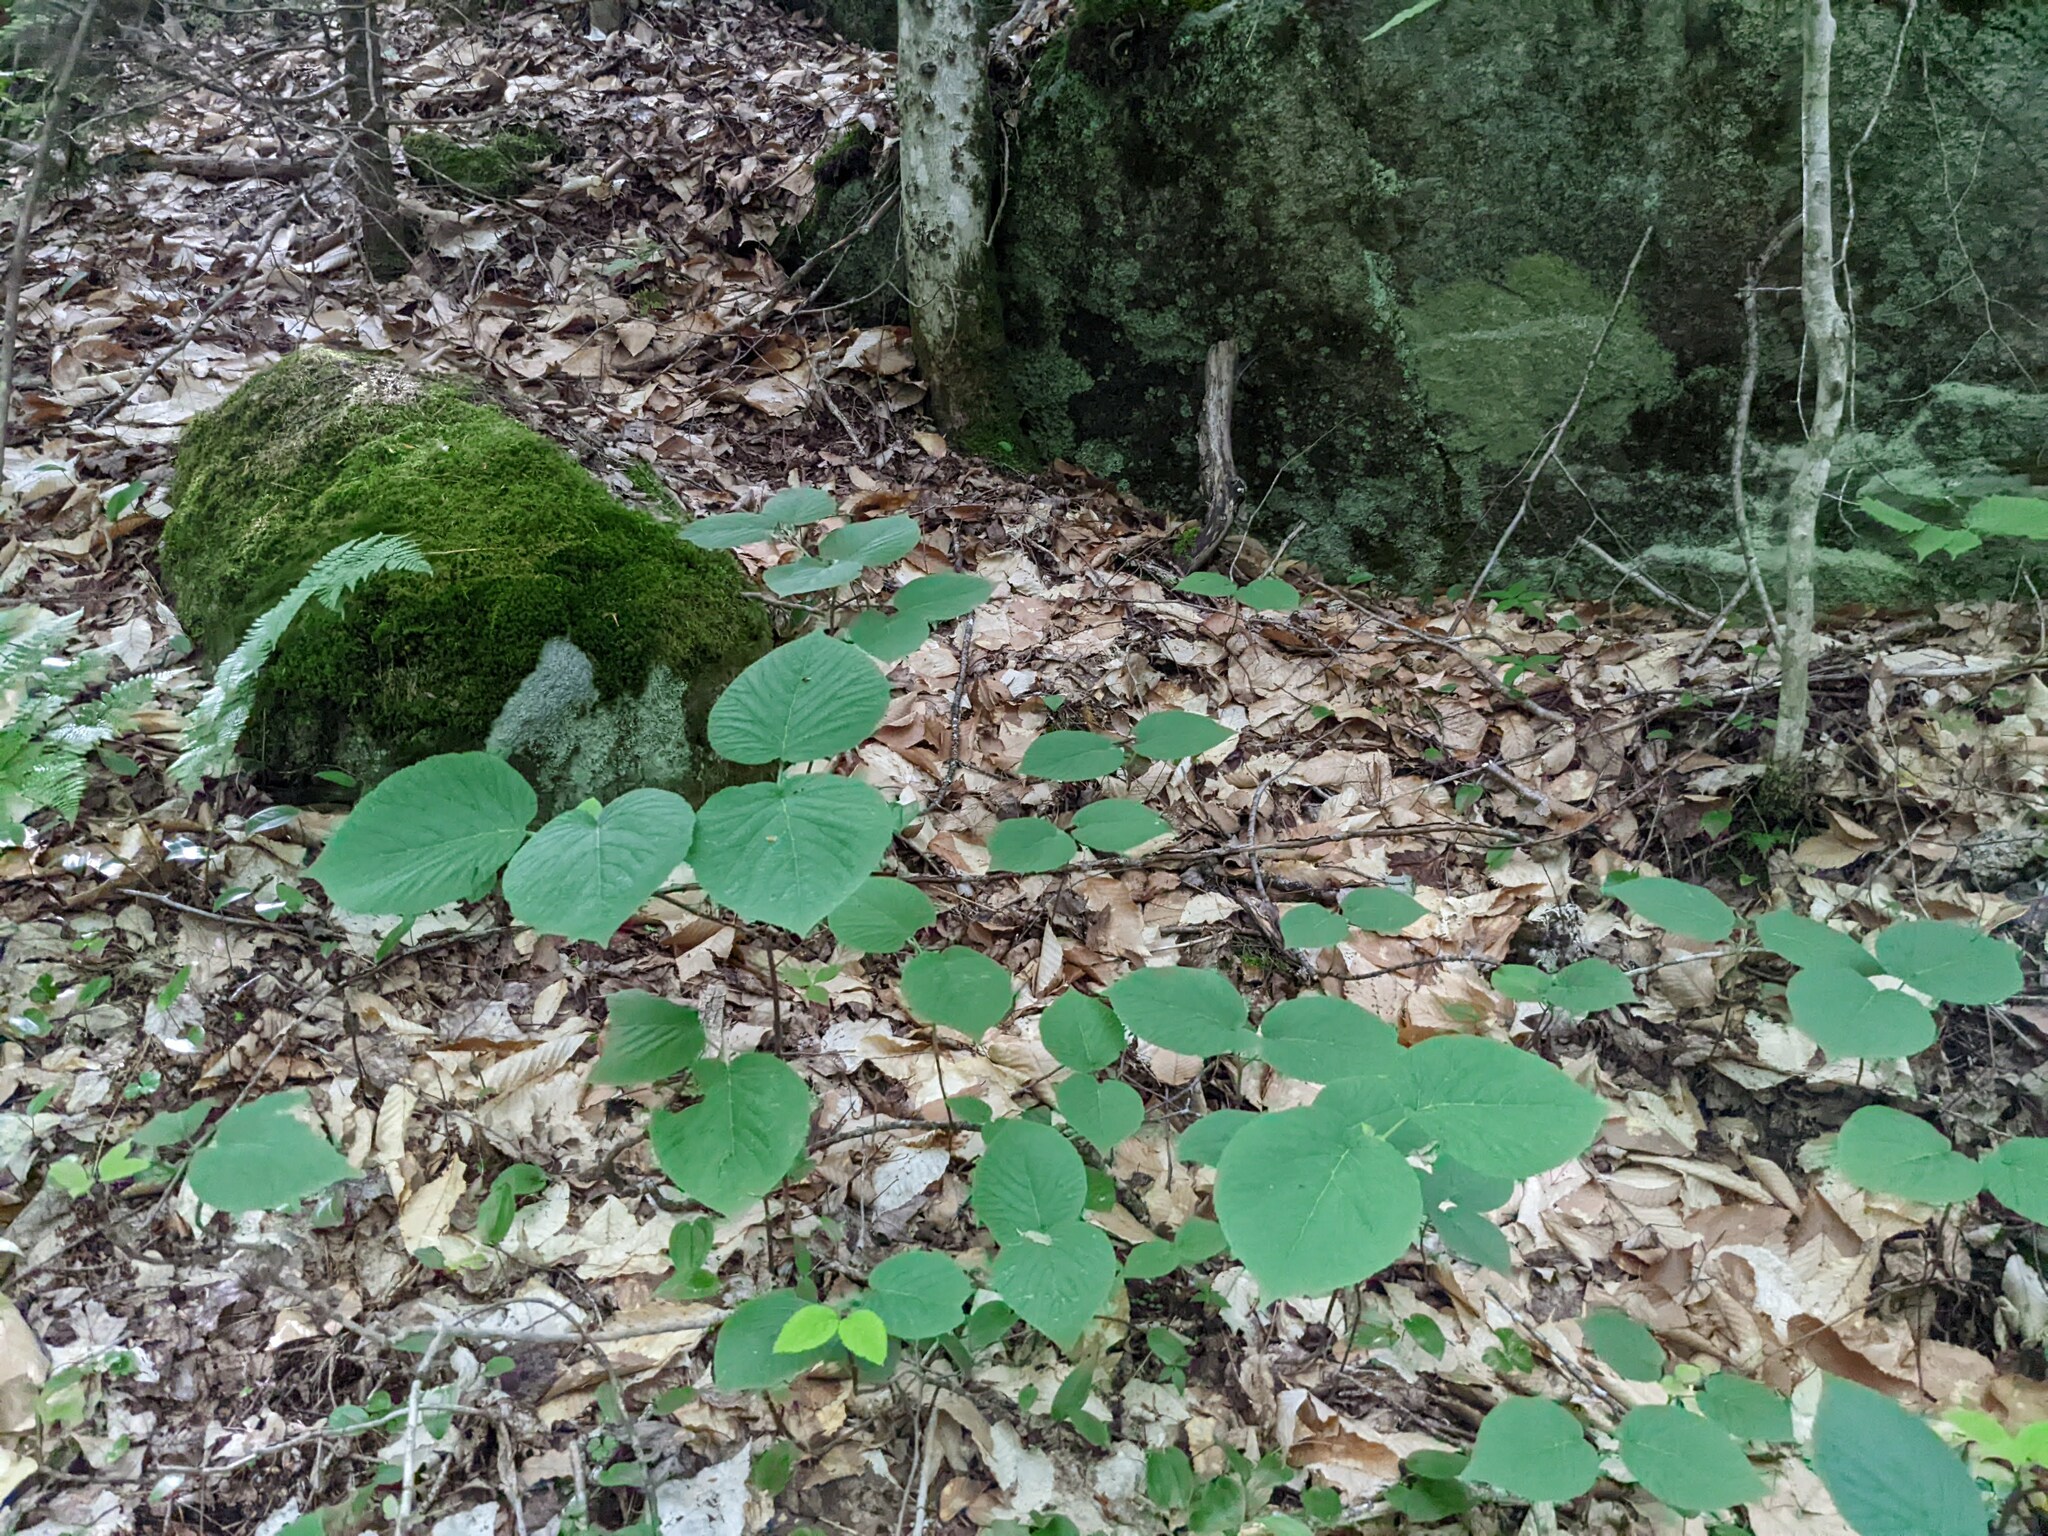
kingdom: Plantae
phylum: Tracheophyta
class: Magnoliopsida
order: Dipsacales
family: Viburnaceae
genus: Viburnum
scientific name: Viburnum lantanoides
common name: Hobblebush
